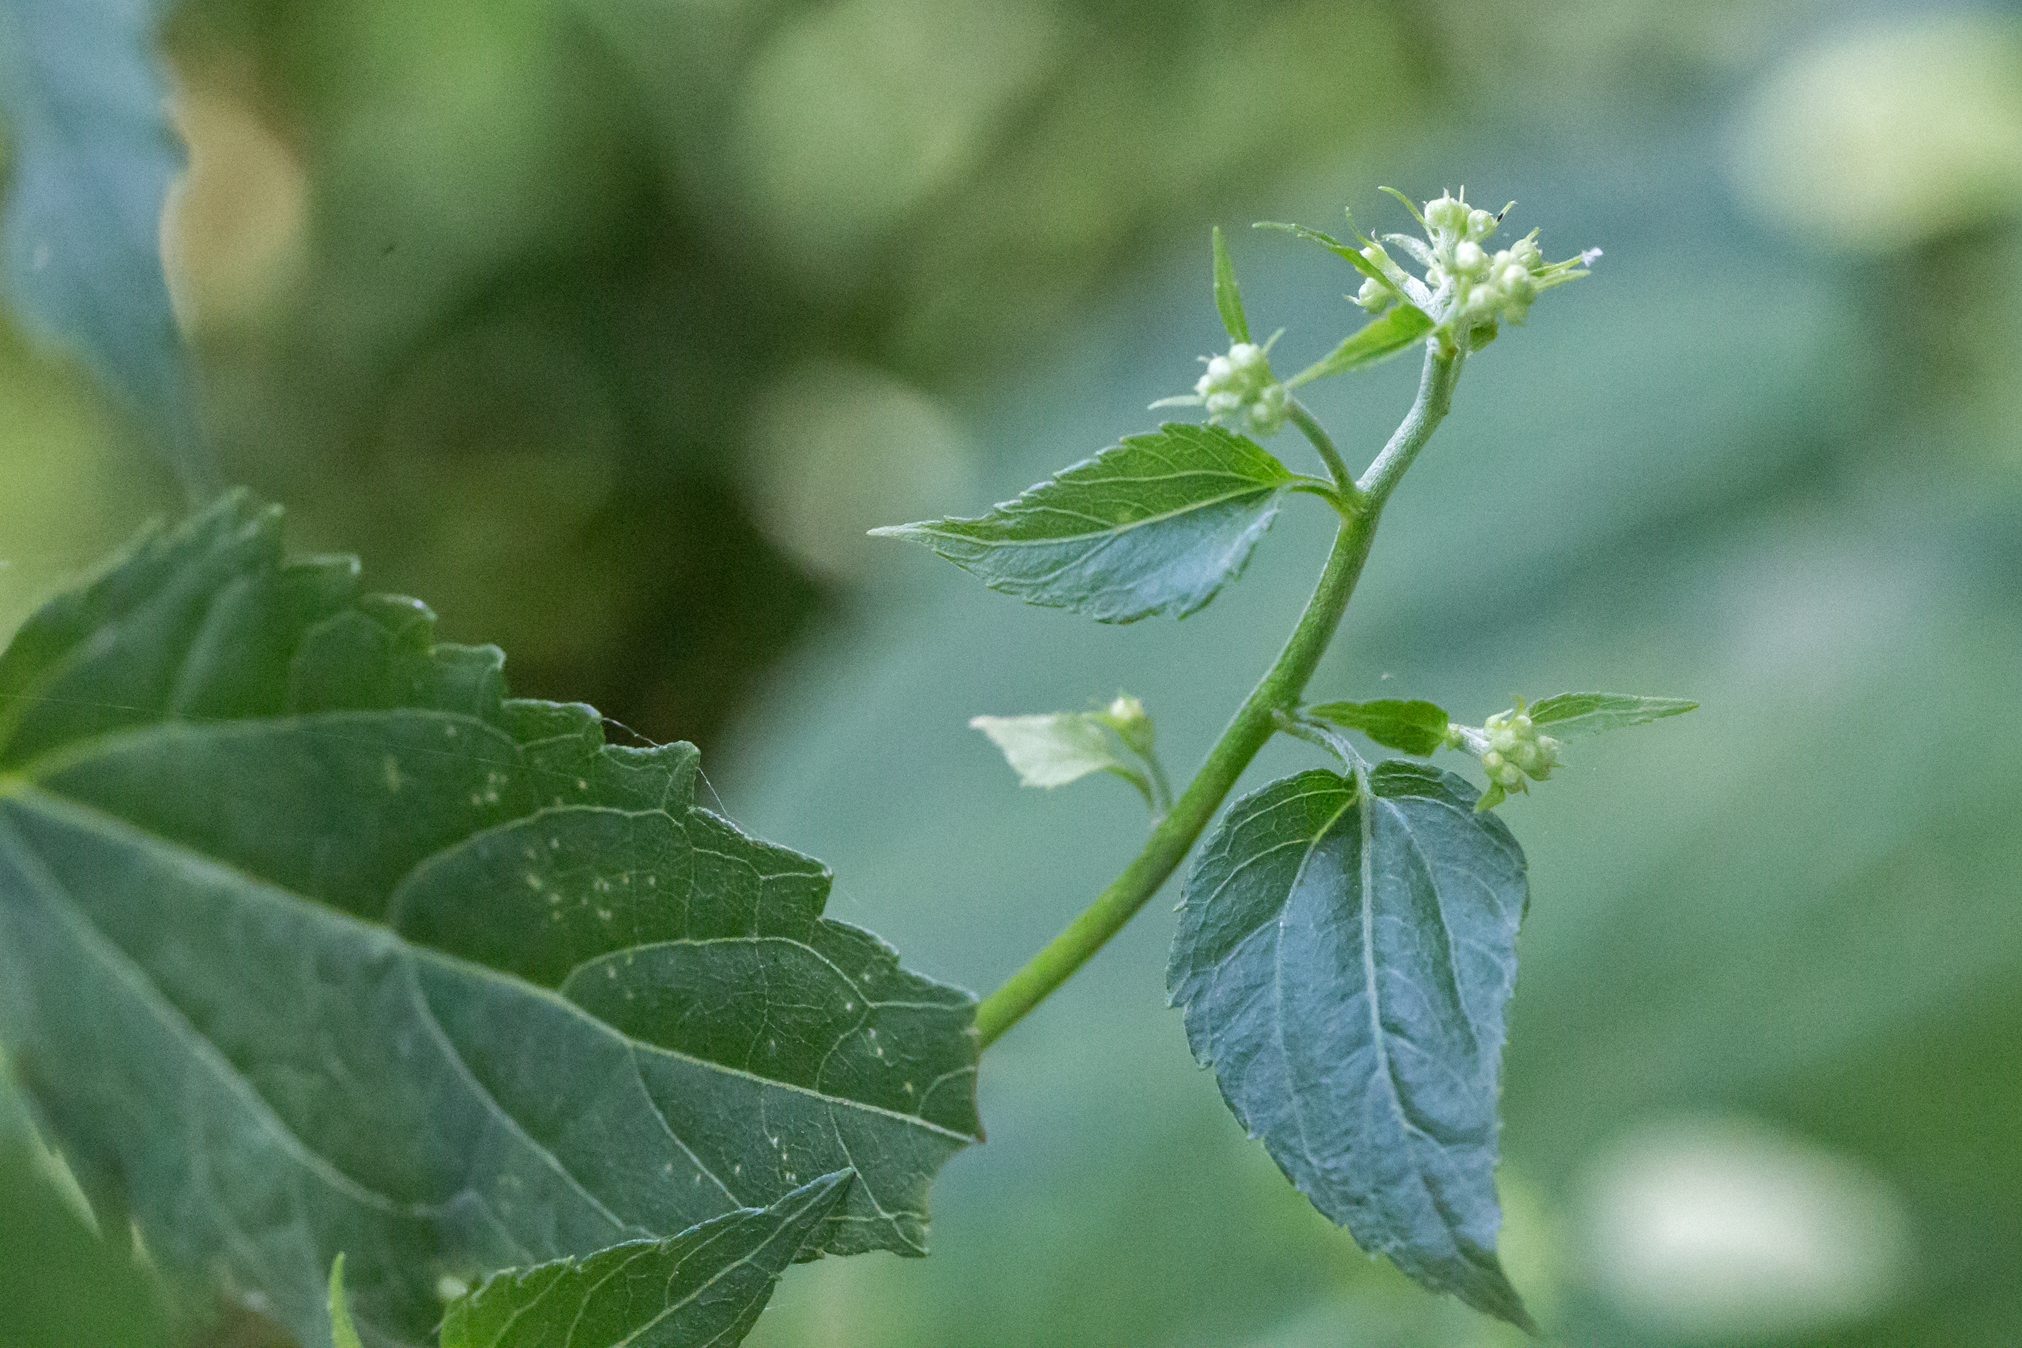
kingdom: Plantae
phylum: Tracheophyta
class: Magnoliopsida
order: Asterales
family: Asteraceae
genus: Ageratina
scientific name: Ageratina altissima
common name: White snakeroot
